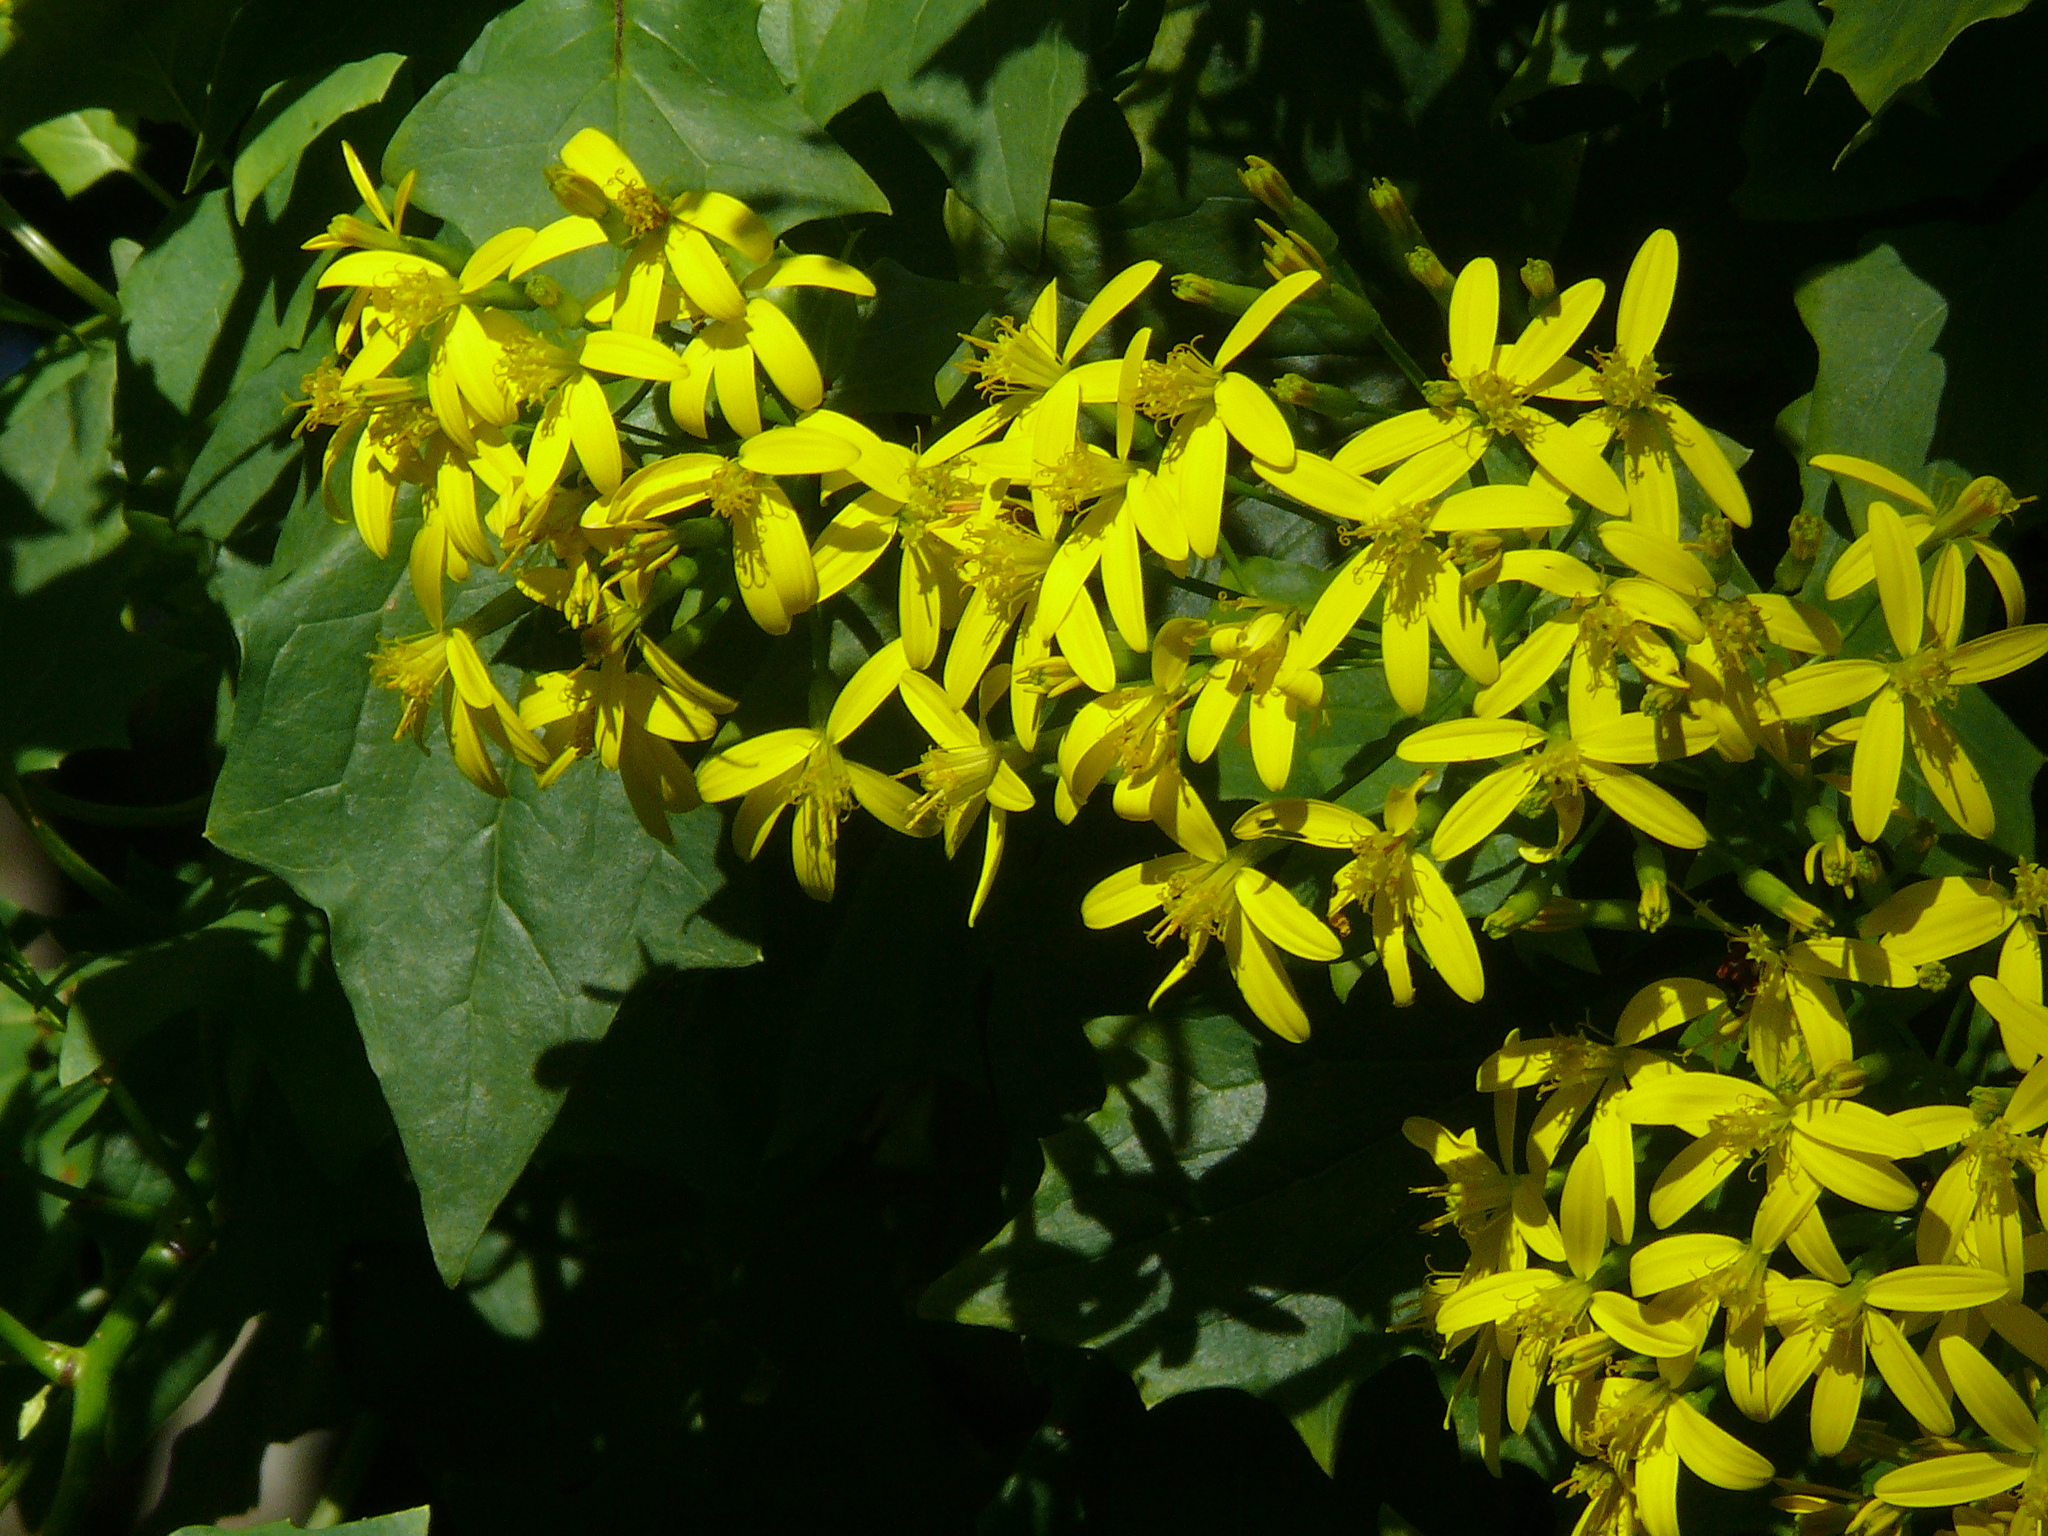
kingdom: Plantae
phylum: Tracheophyta
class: Magnoliopsida
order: Asterales
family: Asteraceae
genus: Senecio
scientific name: Senecio tamoides
